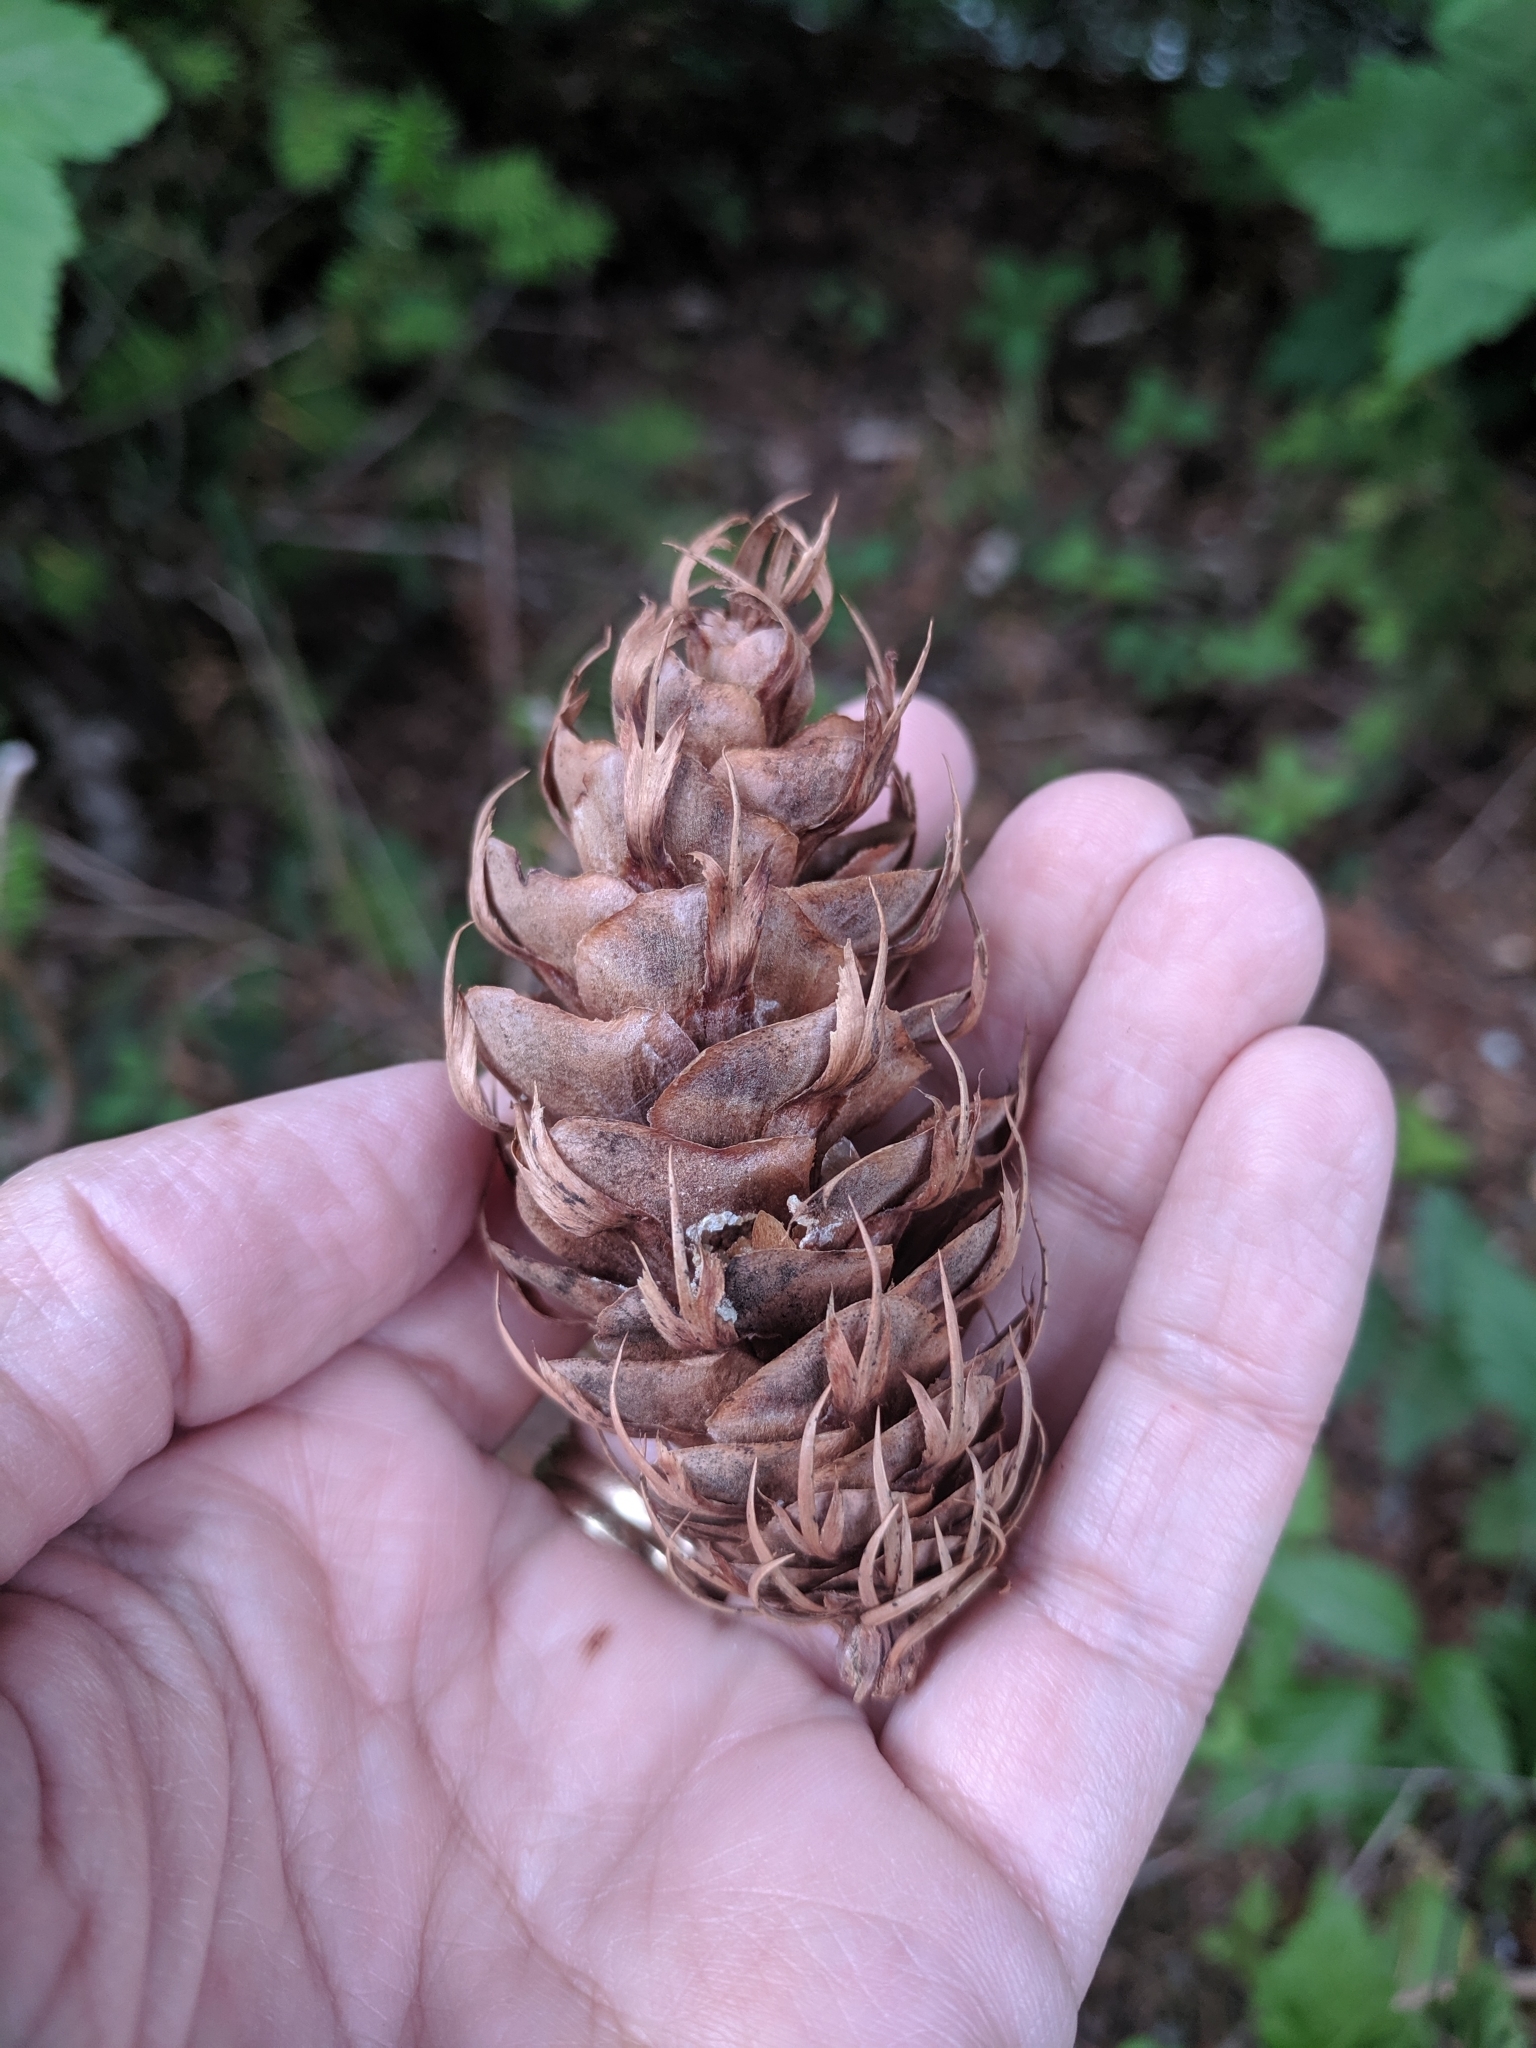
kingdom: Plantae
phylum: Tracheophyta
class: Pinopsida
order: Pinales
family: Pinaceae
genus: Pseudotsuga
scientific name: Pseudotsuga menziesii
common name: Douglas fir
